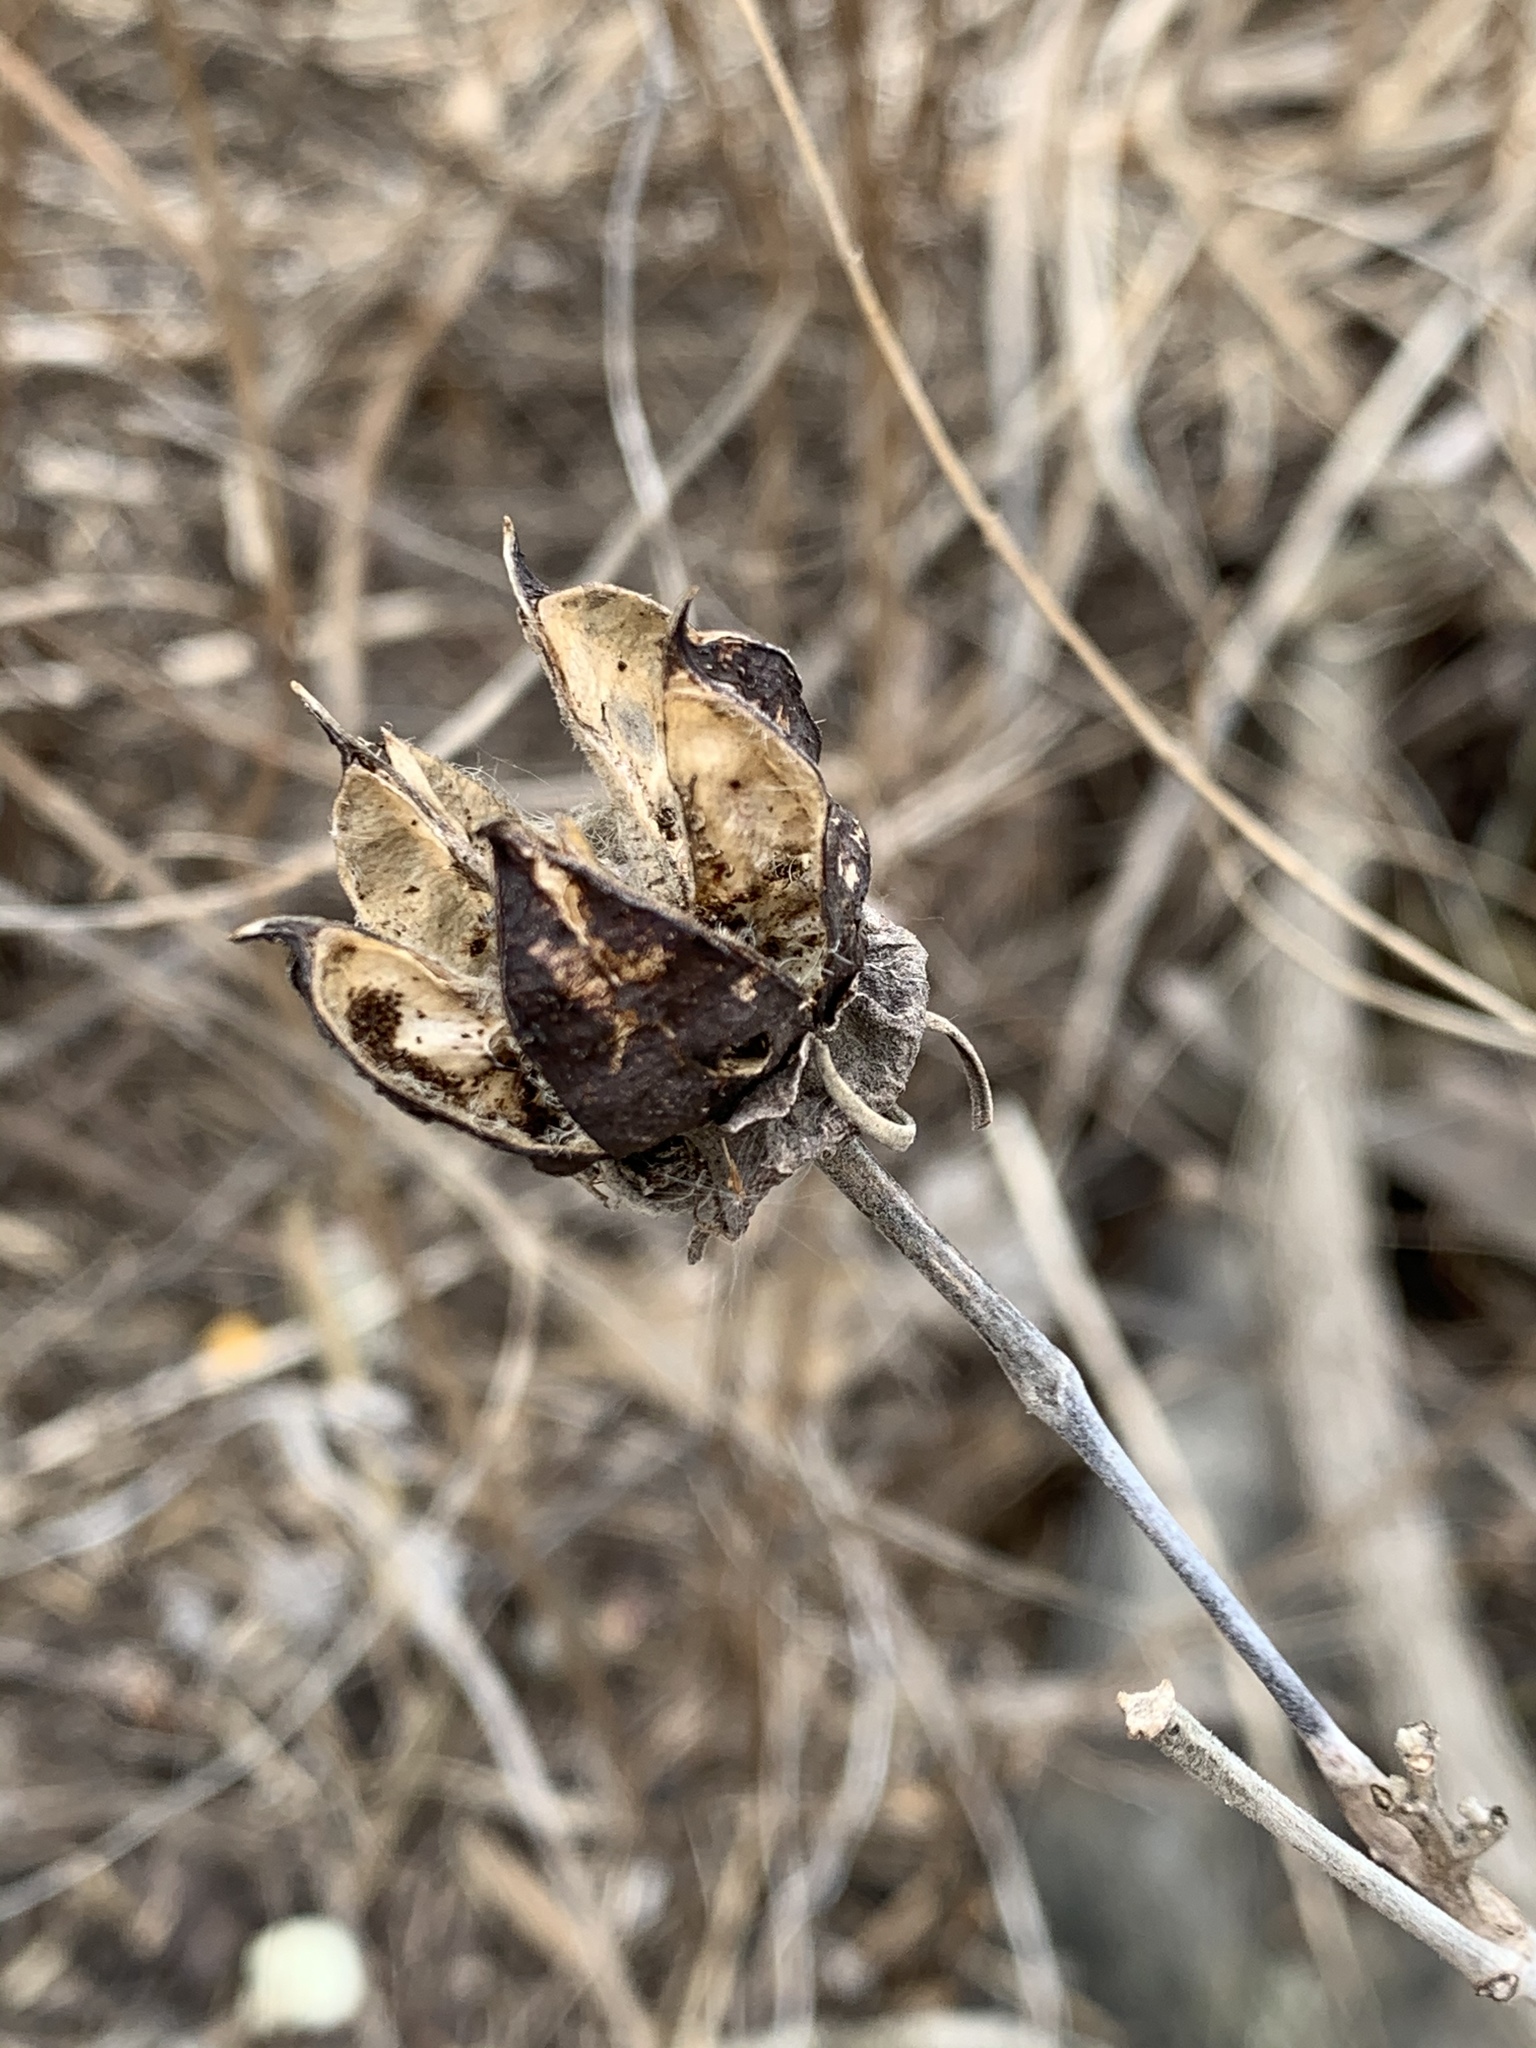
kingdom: Plantae
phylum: Tracheophyta
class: Magnoliopsida
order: Malvales
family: Malvaceae
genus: Hibiscus
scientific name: Hibiscus moscheutos
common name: Common rose-mallow
